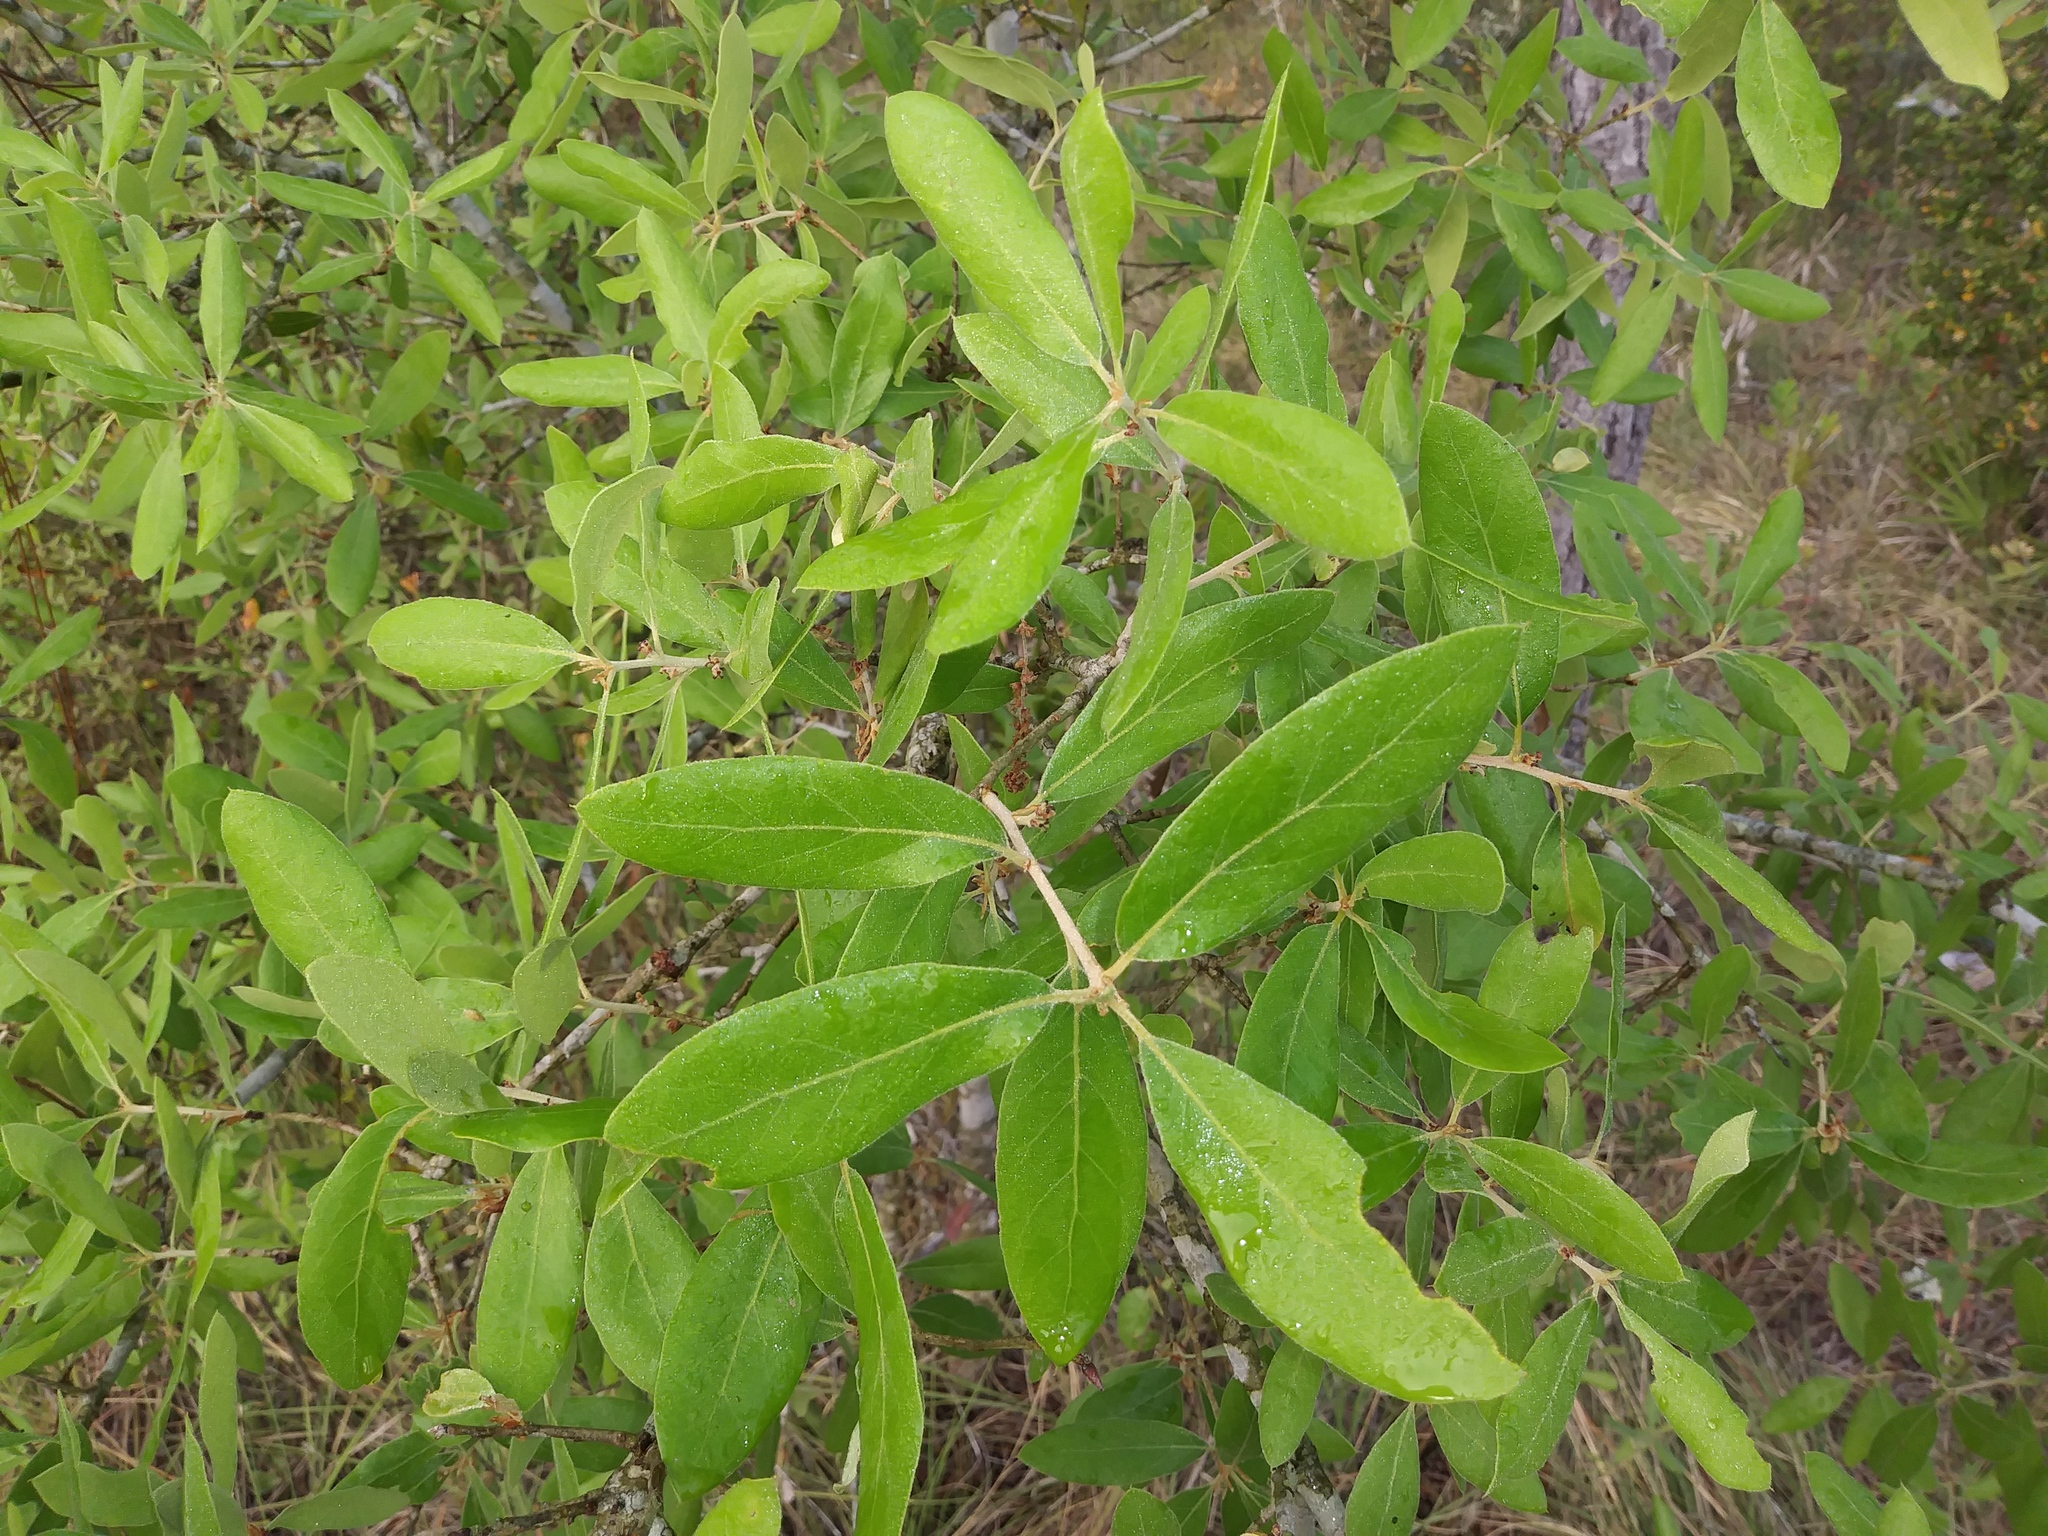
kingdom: Plantae
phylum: Tracheophyta
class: Magnoliopsida
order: Fagales
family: Fagaceae
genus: Quercus
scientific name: Quercus incana
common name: Bluejack oak
